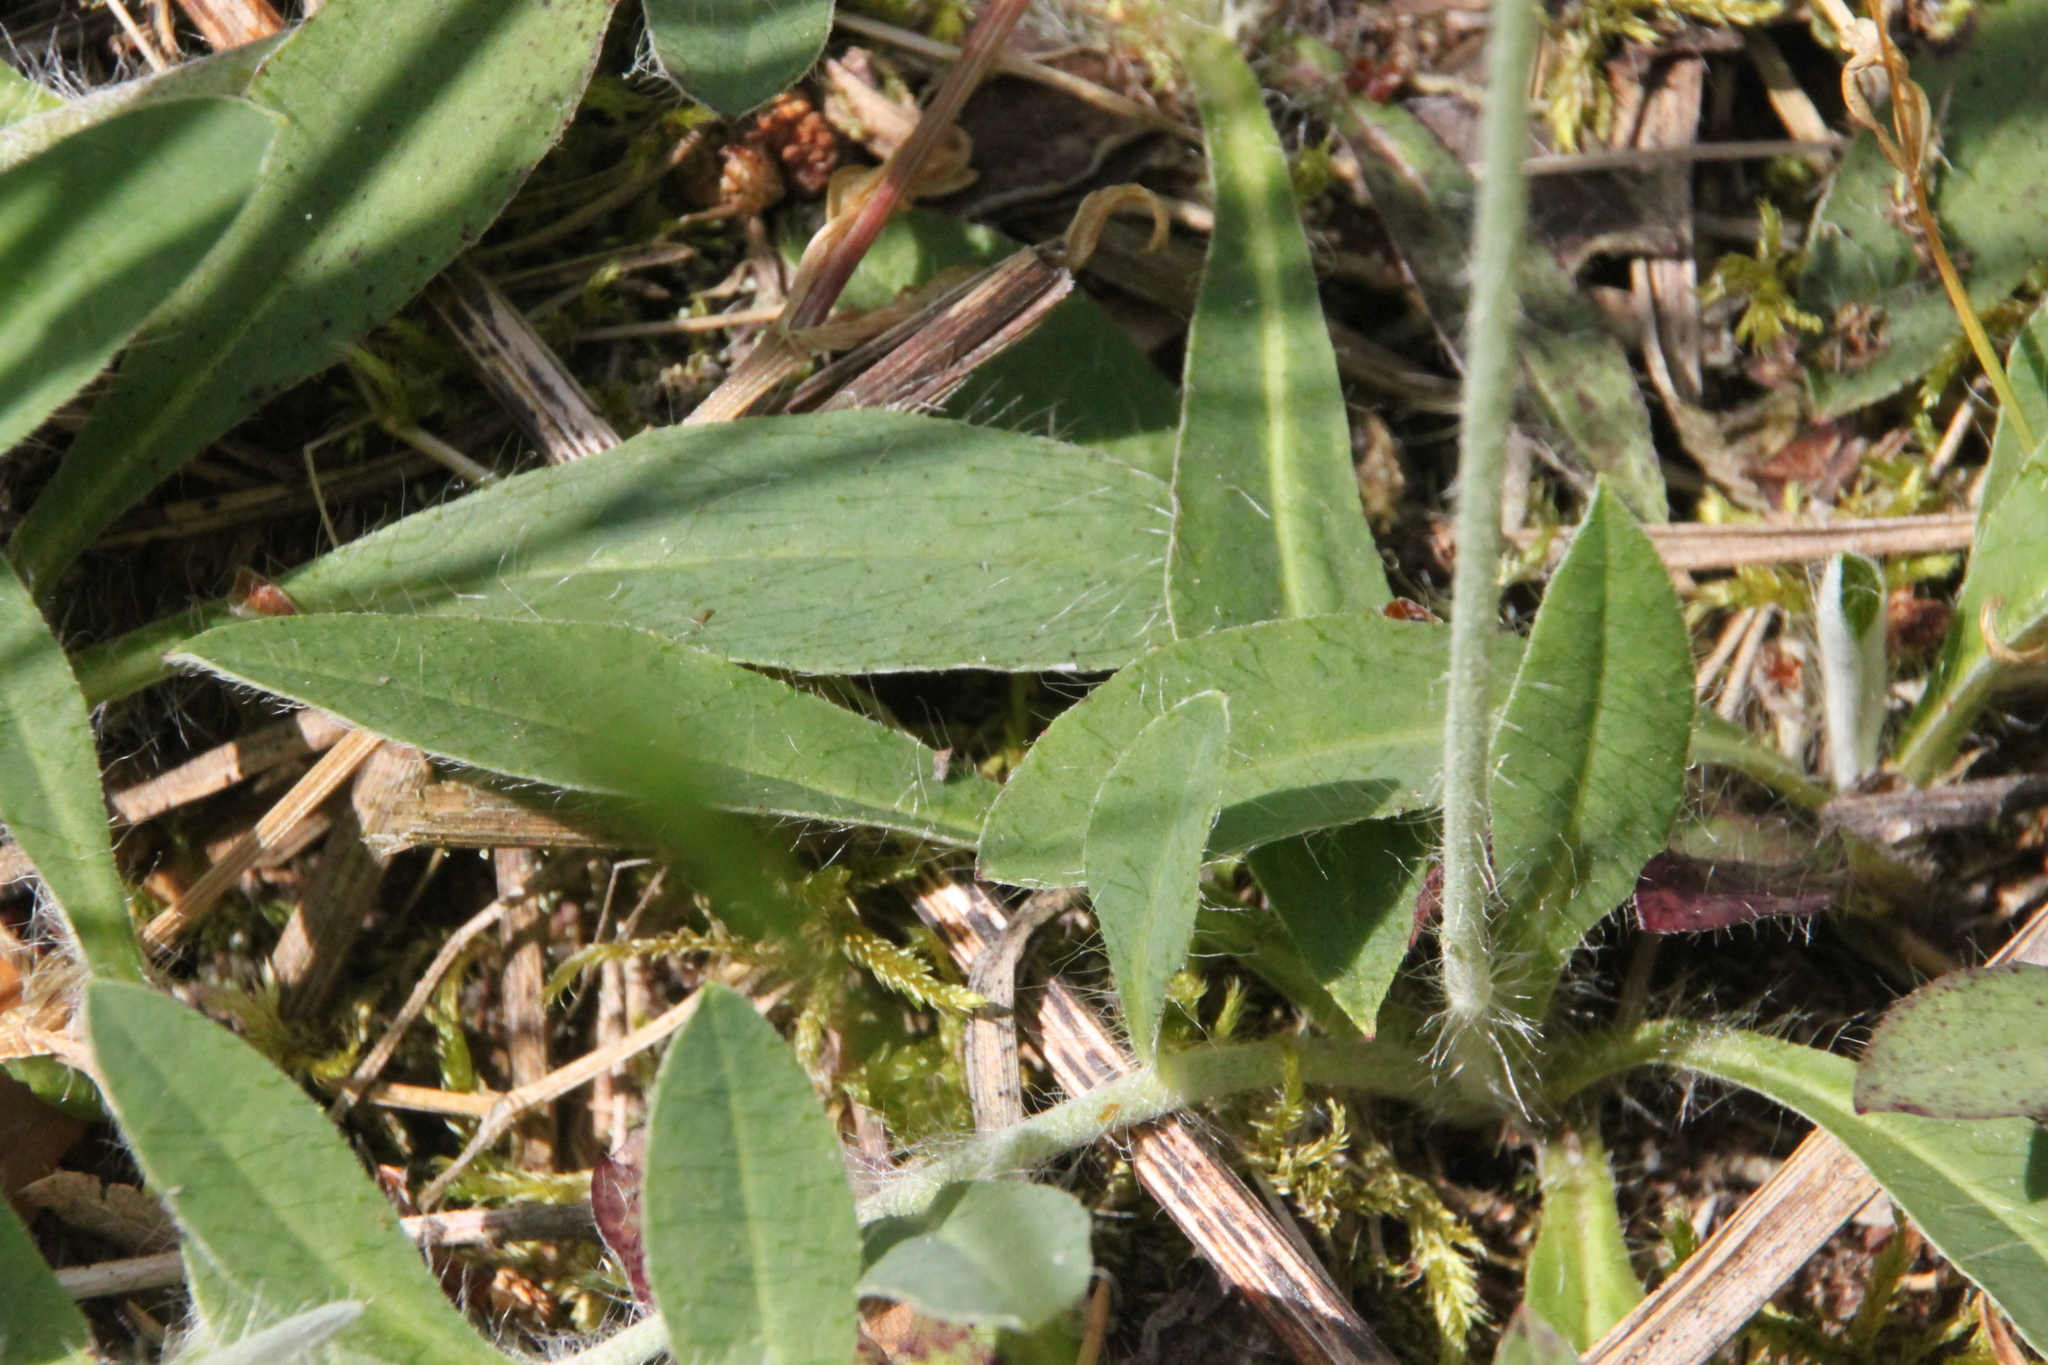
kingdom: Plantae
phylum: Tracheophyta
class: Magnoliopsida
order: Asterales
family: Asteraceae
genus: Pilosella
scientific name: Pilosella officinarum
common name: Mouse-ear hawkweed
